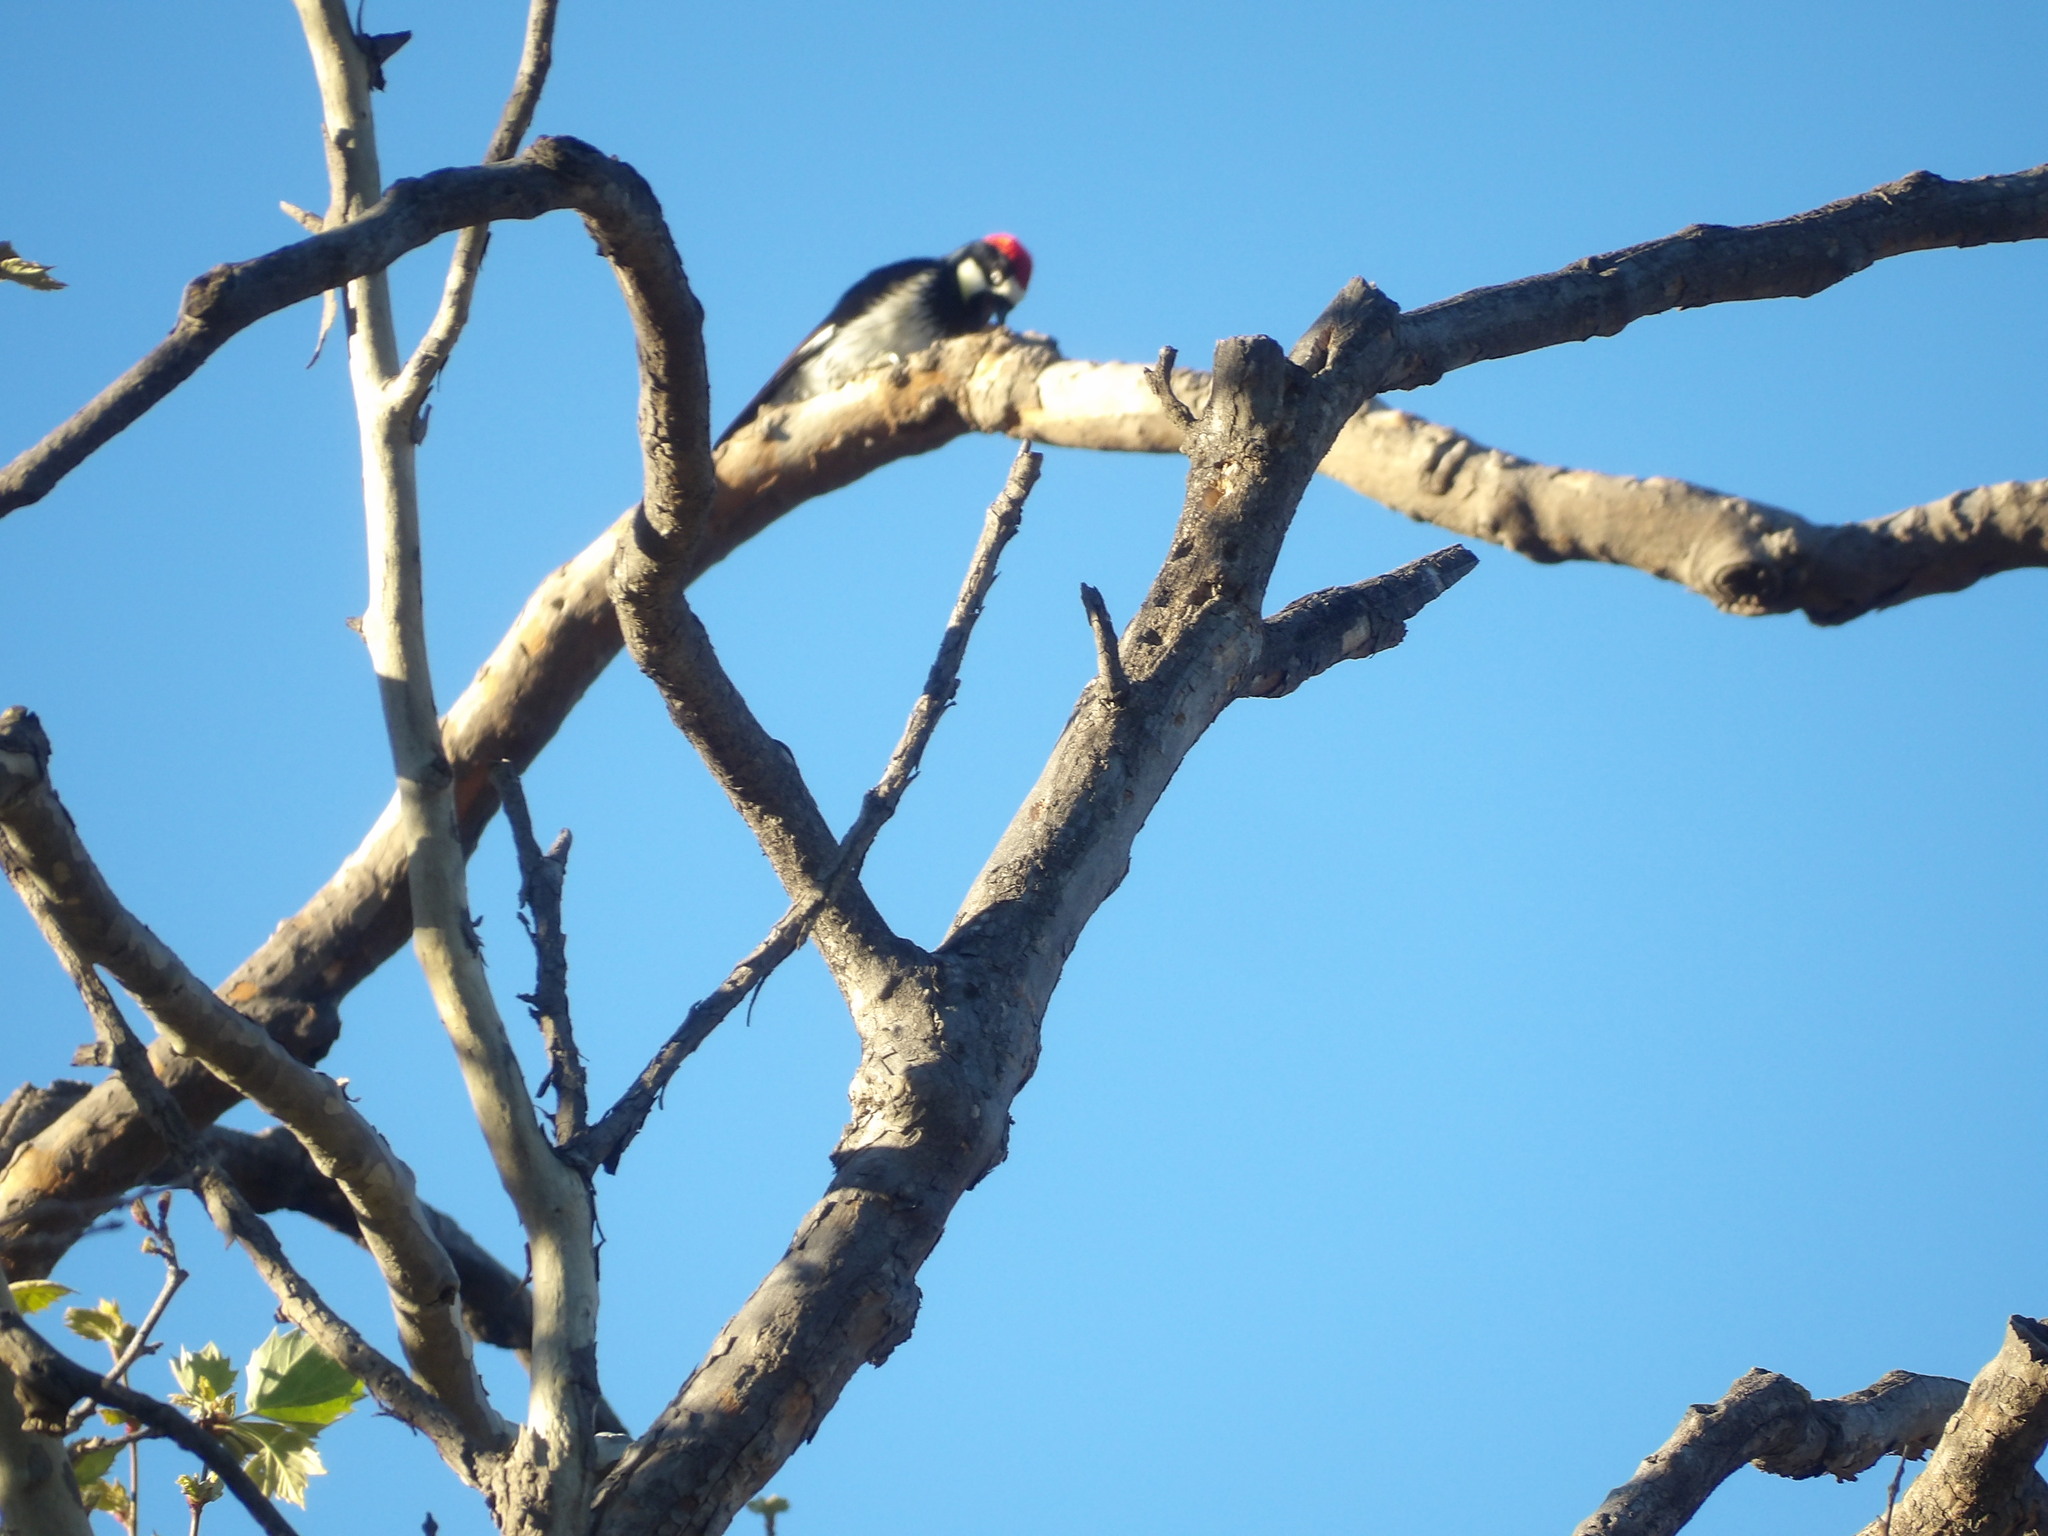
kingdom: Animalia
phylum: Chordata
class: Aves
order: Piciformes
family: Picidae
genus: Melanerpes
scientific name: Melanerpes formicivorus
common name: Acorn woodpecker
